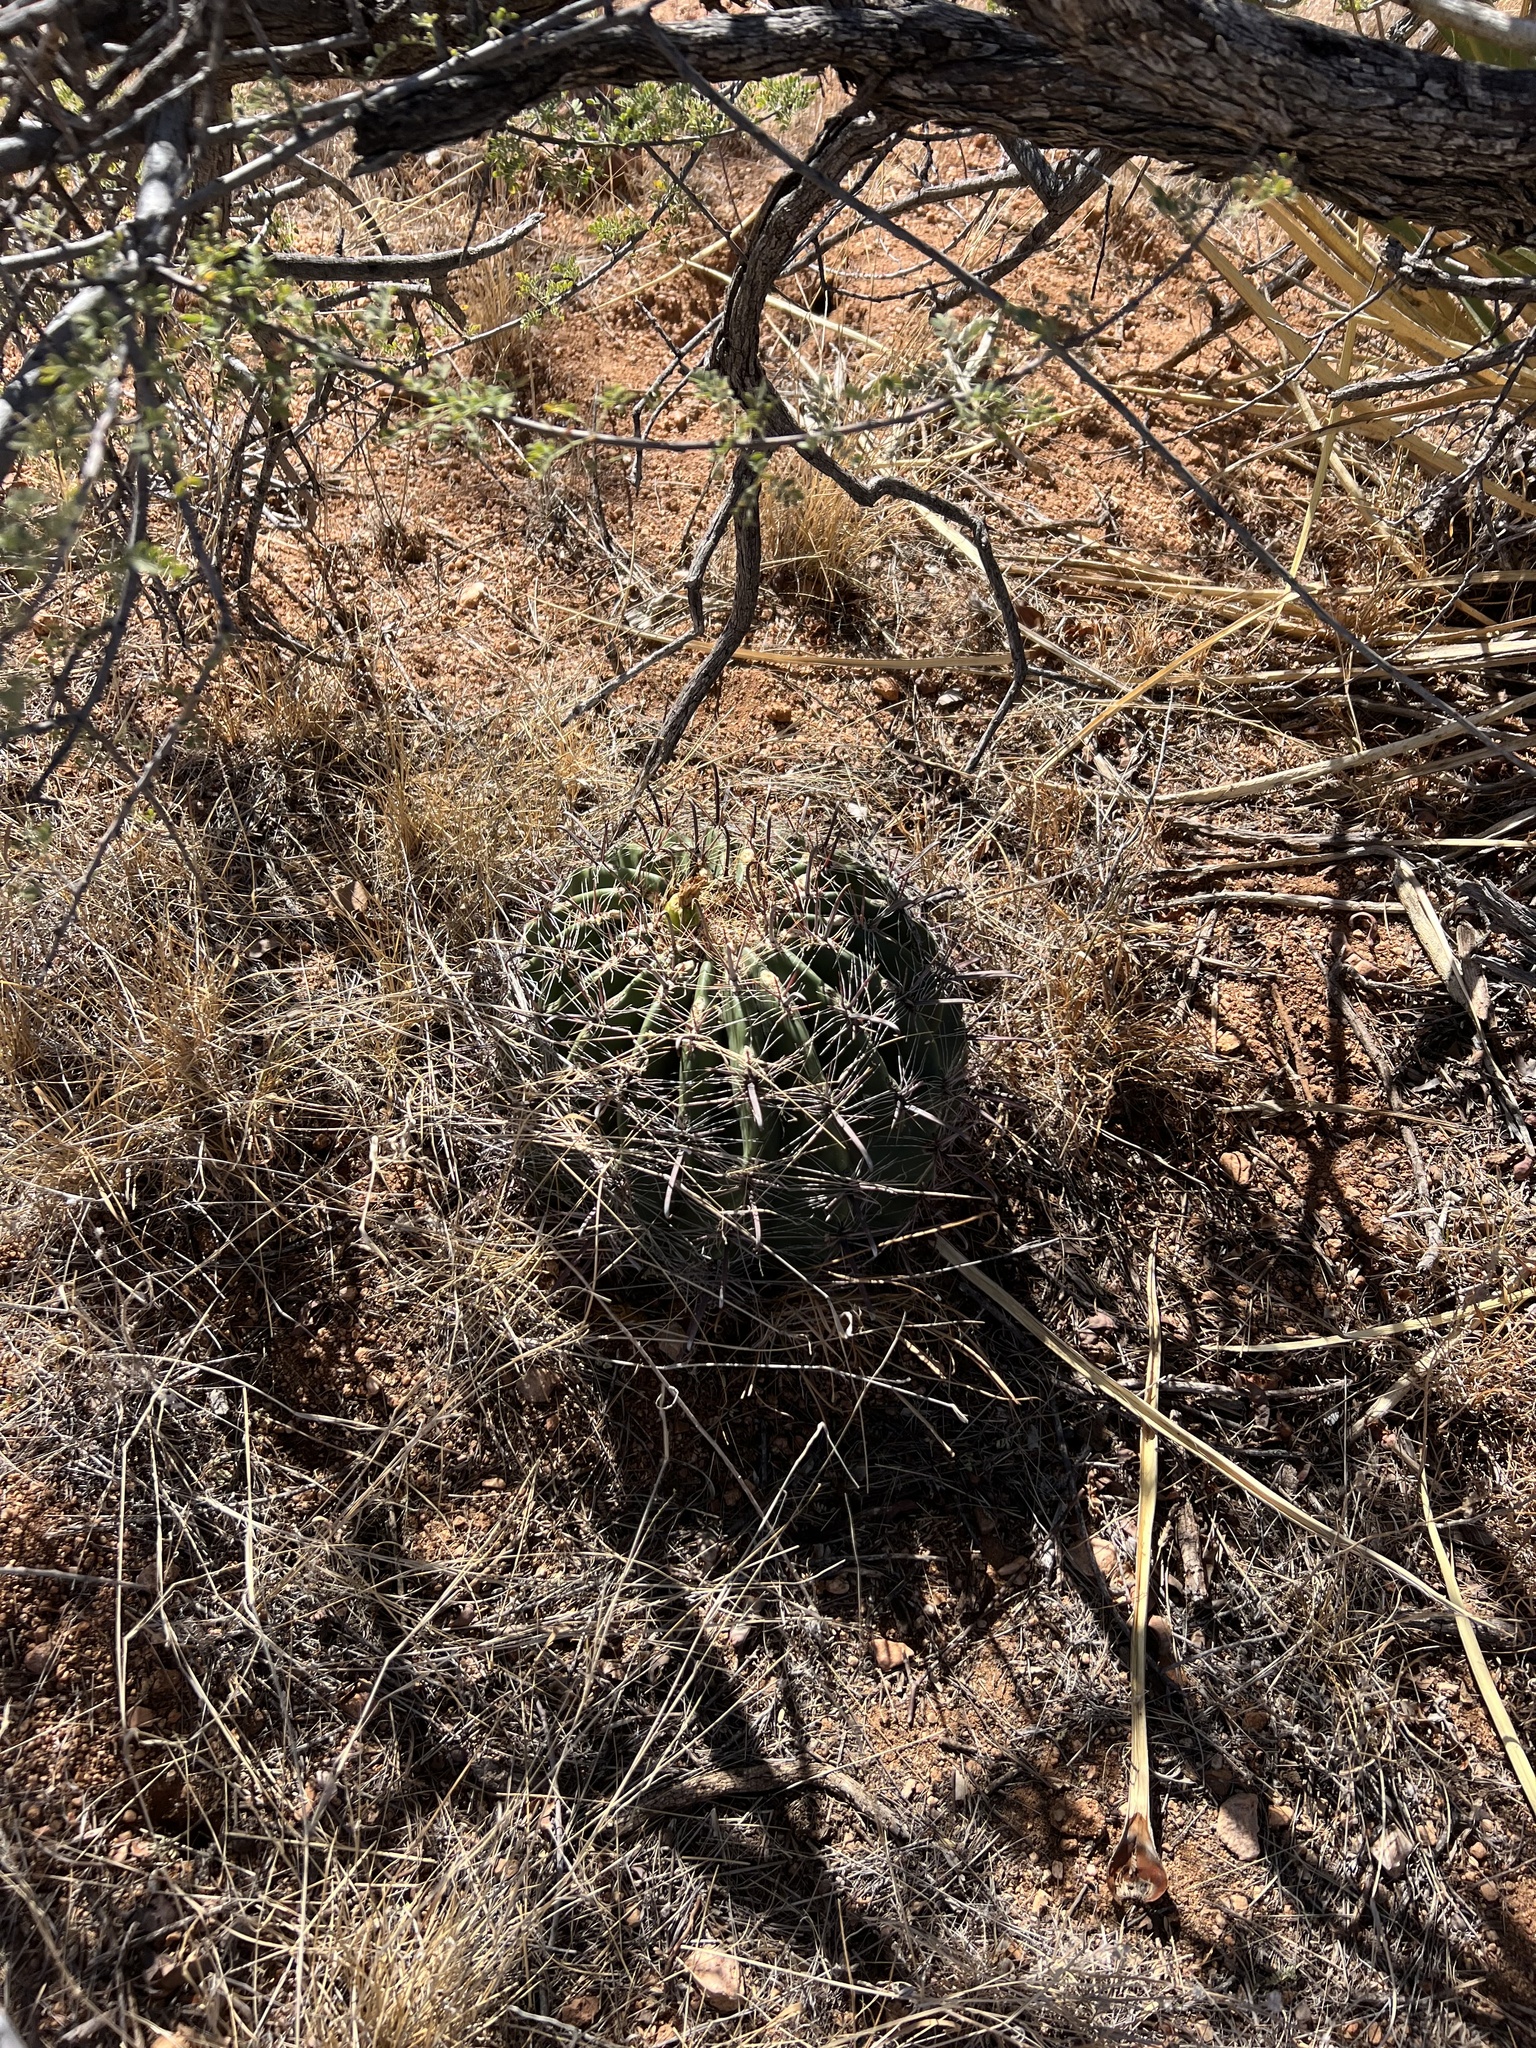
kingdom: Plantae
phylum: Tracheophyta
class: Magnoliopsida
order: Caryophyllales
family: Cactaceae
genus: Ferocactus
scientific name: Ferocactus wislizeni
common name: Candy barrel cactus
